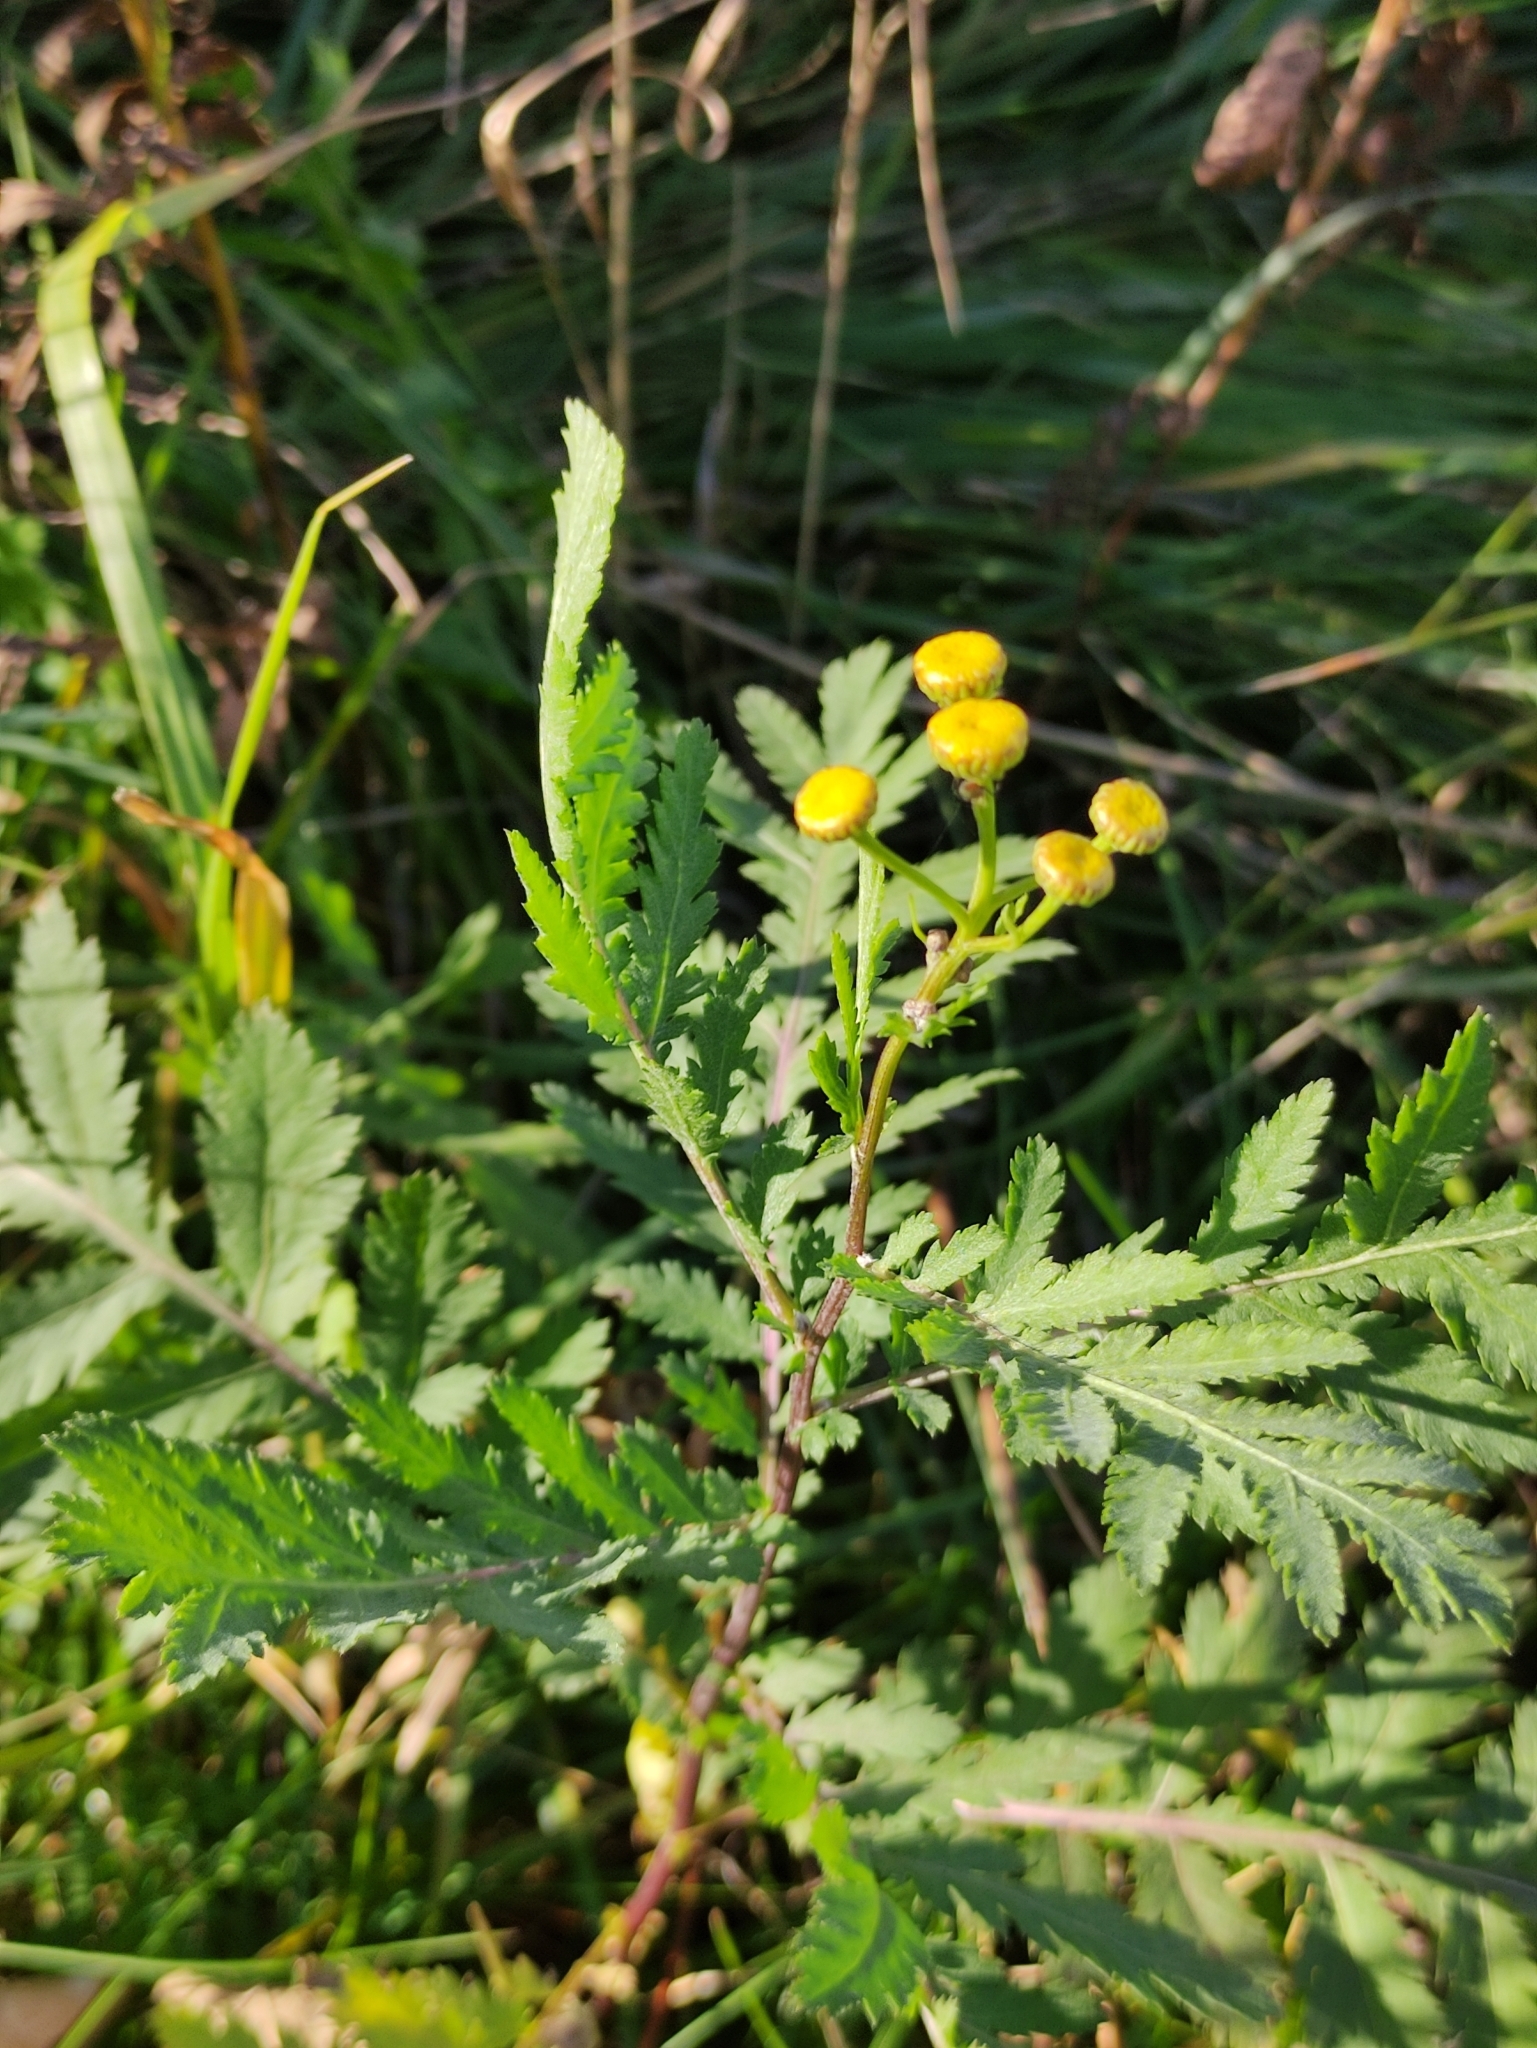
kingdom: Plantae
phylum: Tracheophyta
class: Magnoliopsida
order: Asterales
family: Asteraceae
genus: Tanacetum
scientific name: Tanacetum vulgare
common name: Common tansy
